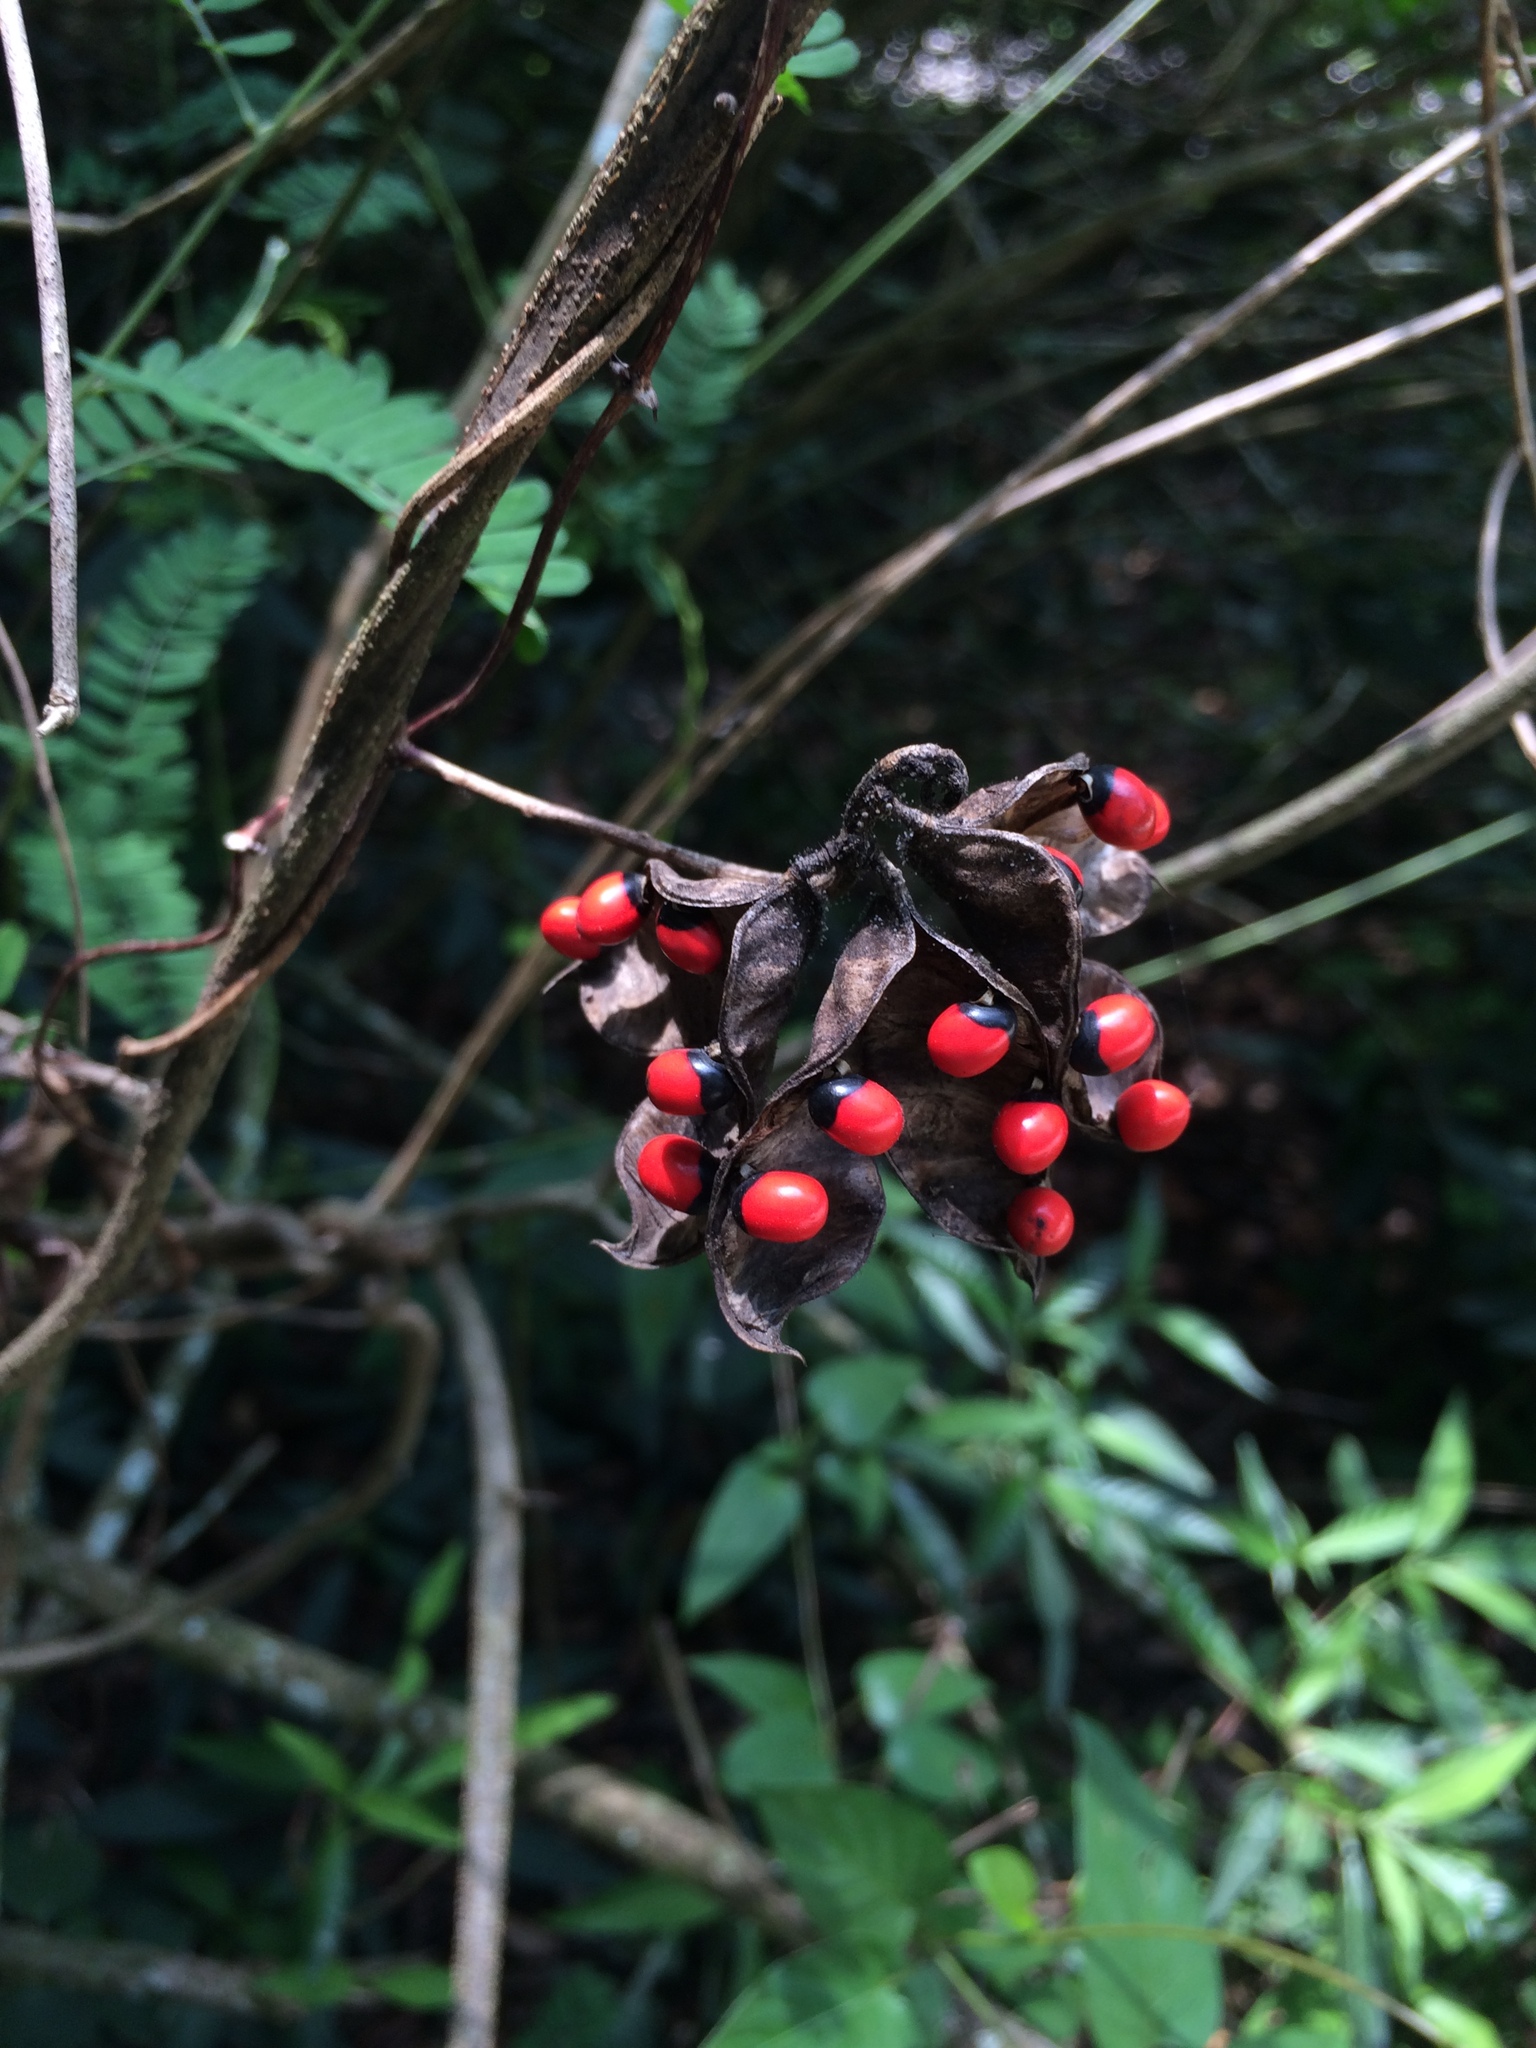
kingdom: Plantae
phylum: Tracheophyta
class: Magnoliopsida
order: Fabales
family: Fabaceae
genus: Abrus
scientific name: Abrus precatorius
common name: Rosarypea
